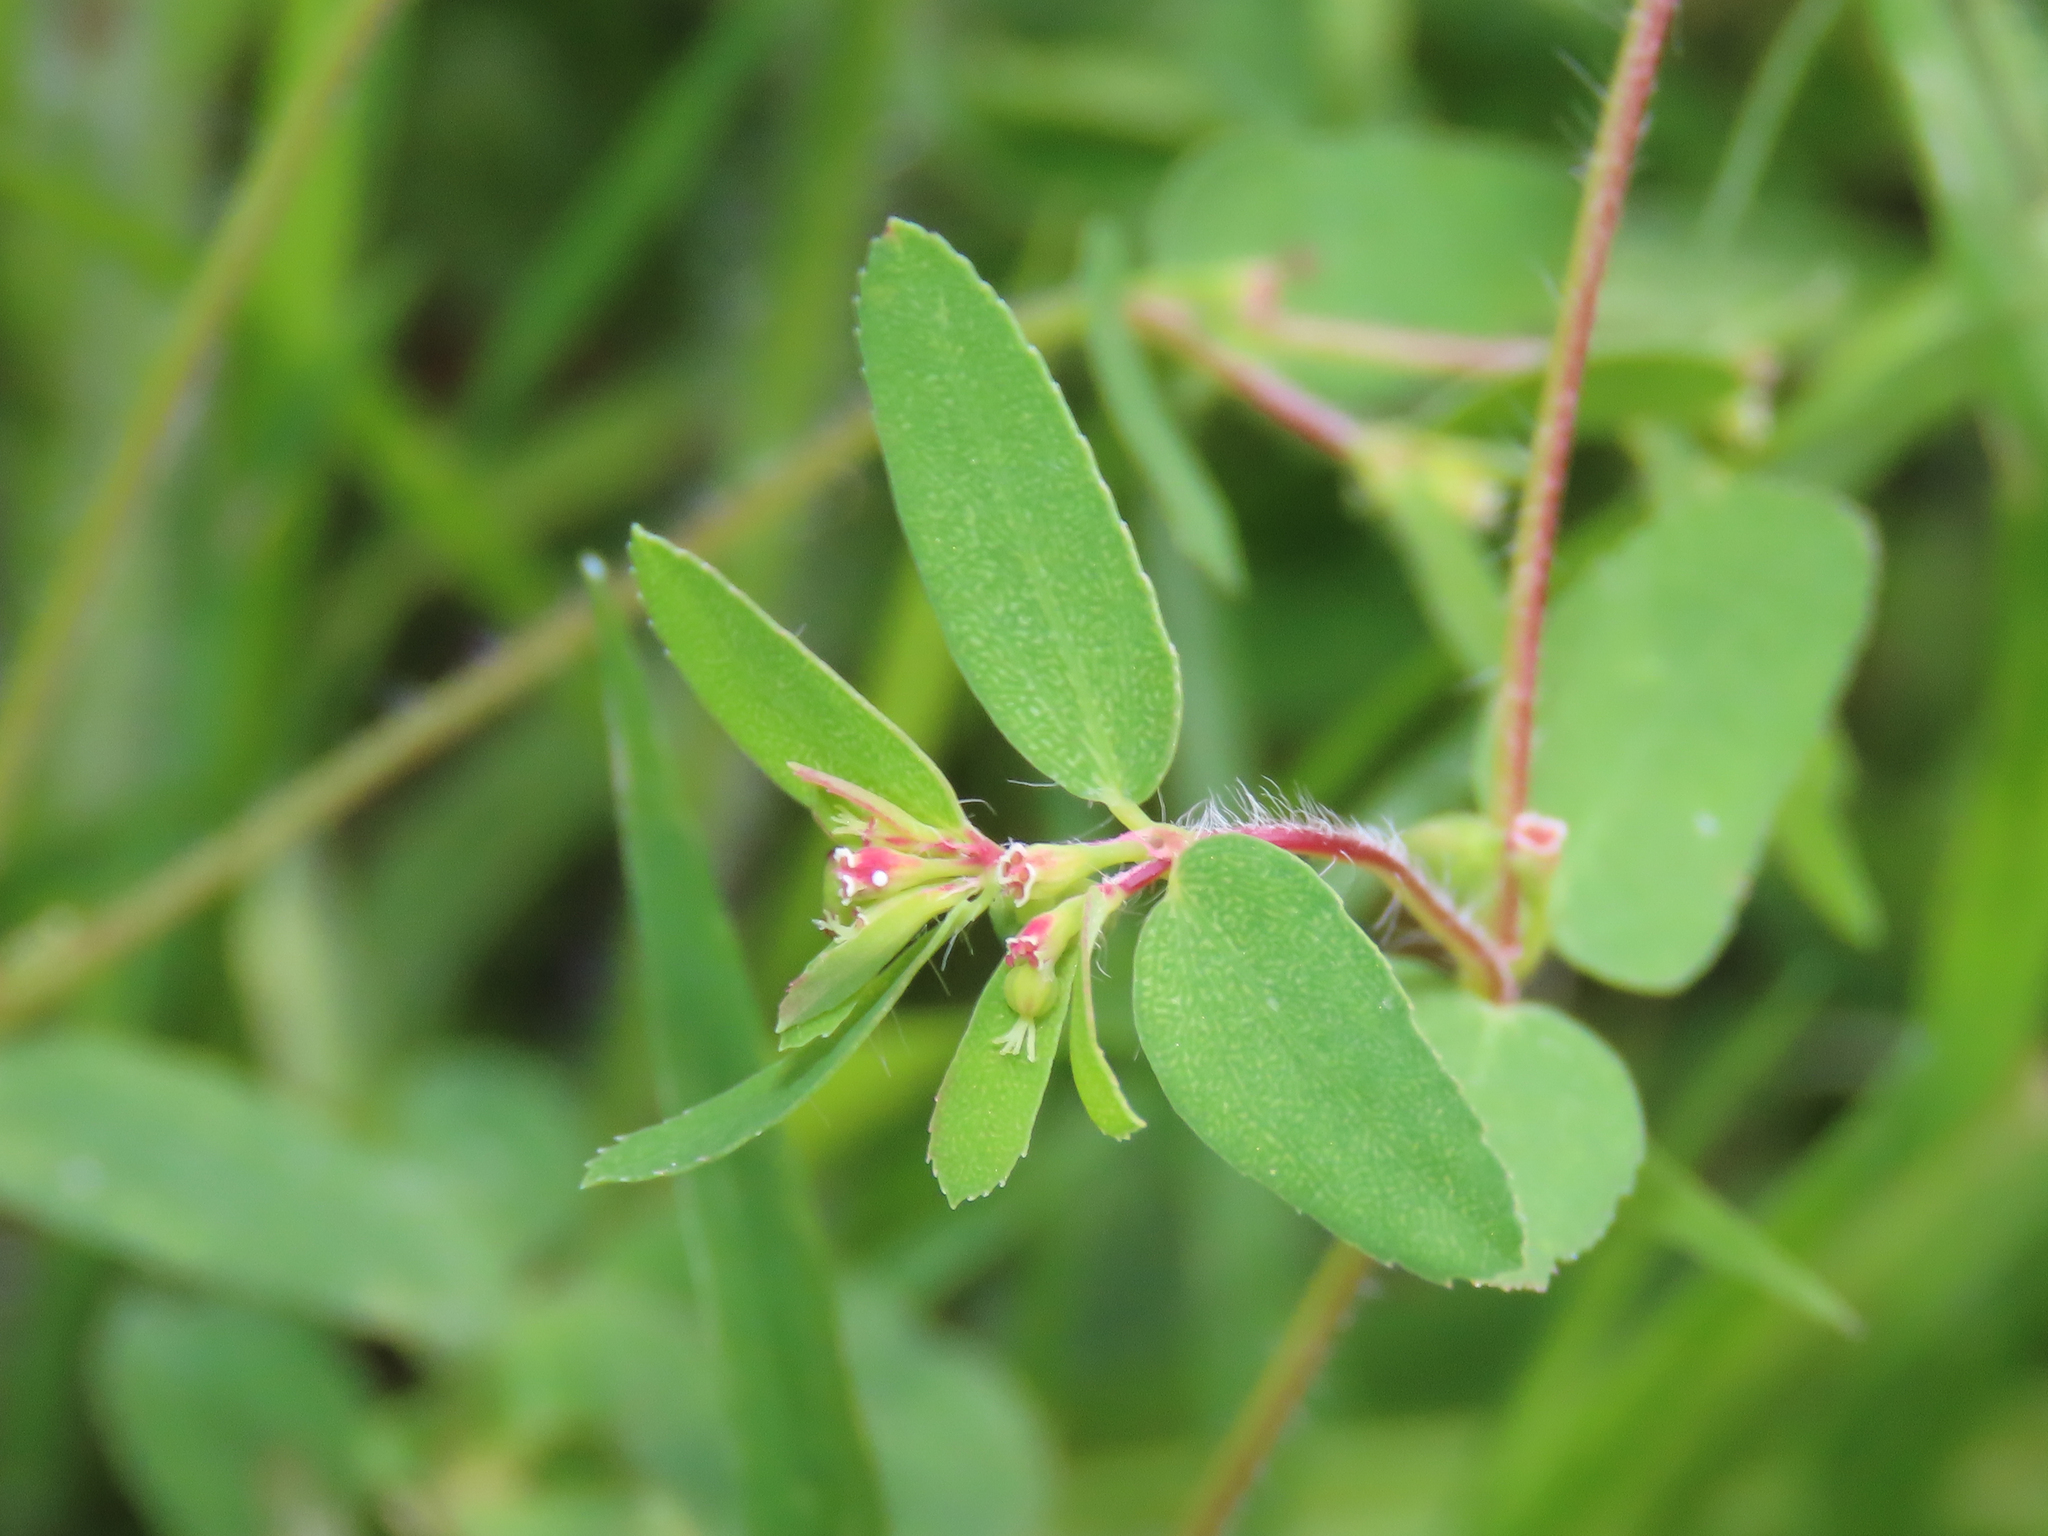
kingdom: Plantae
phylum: Tracheophyta
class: Magnoliopsida
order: Malpighiales
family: Euphorbiaceae
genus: Euphorbia
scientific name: Euphorbia vermiculata
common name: Hairy spurge
